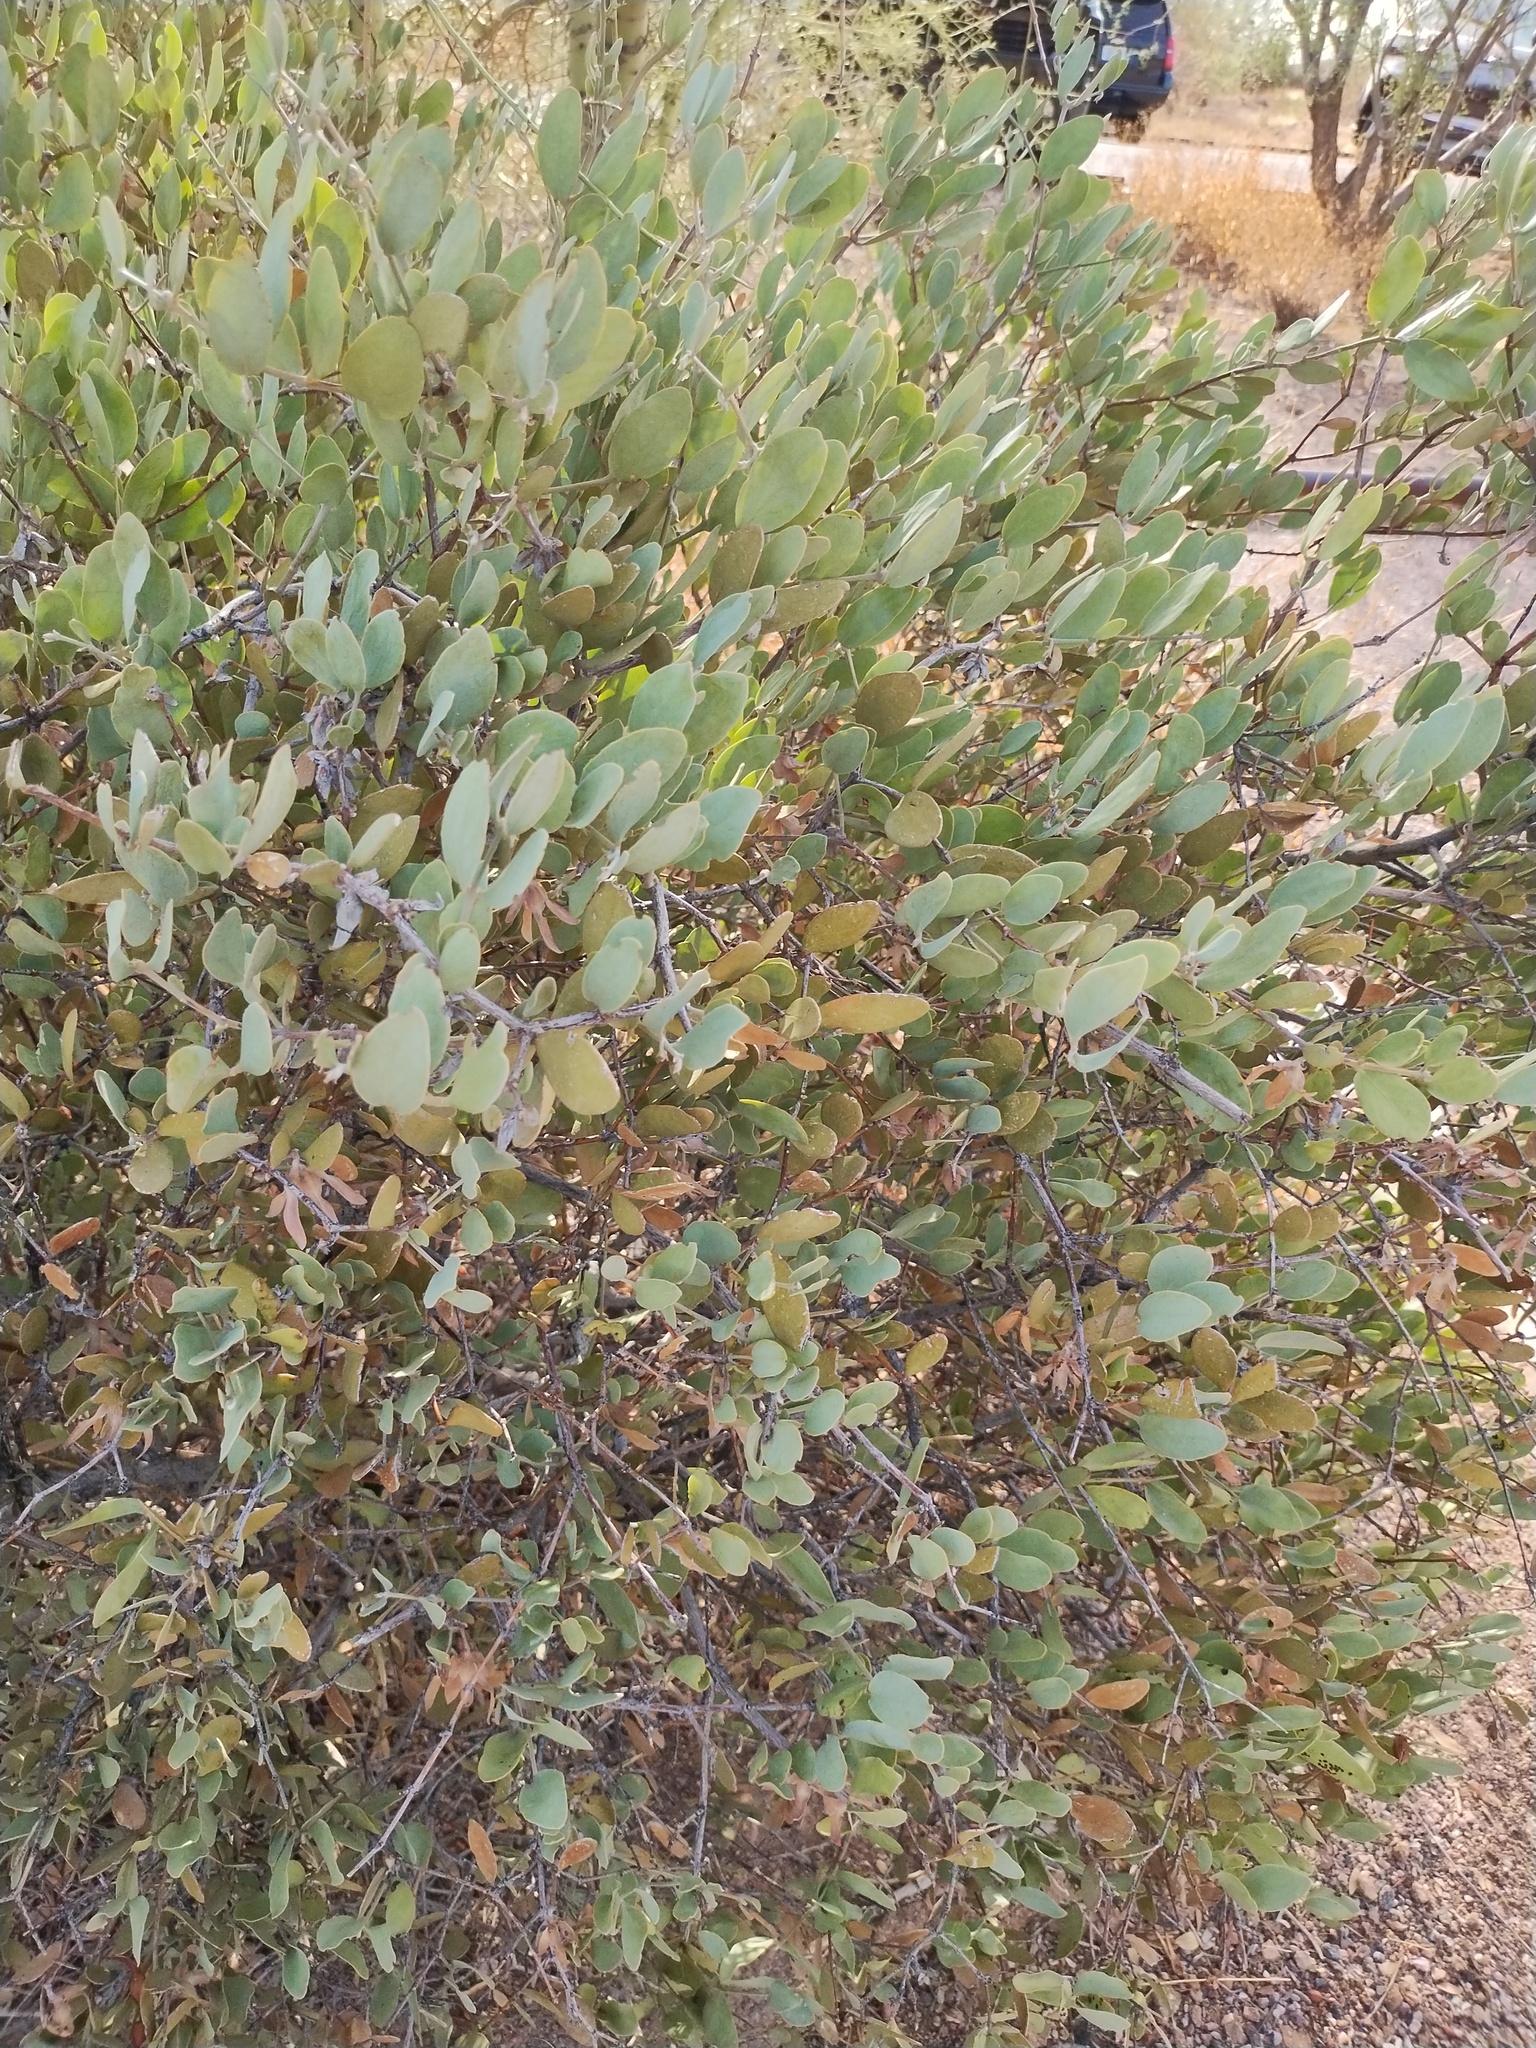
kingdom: Plantae
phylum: Tracheophyta
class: Magnoliopsida
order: Caryophyllales
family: Simmondsiaceae
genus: Simmondsia
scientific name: Simmondsia chinensis
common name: Jojoba
